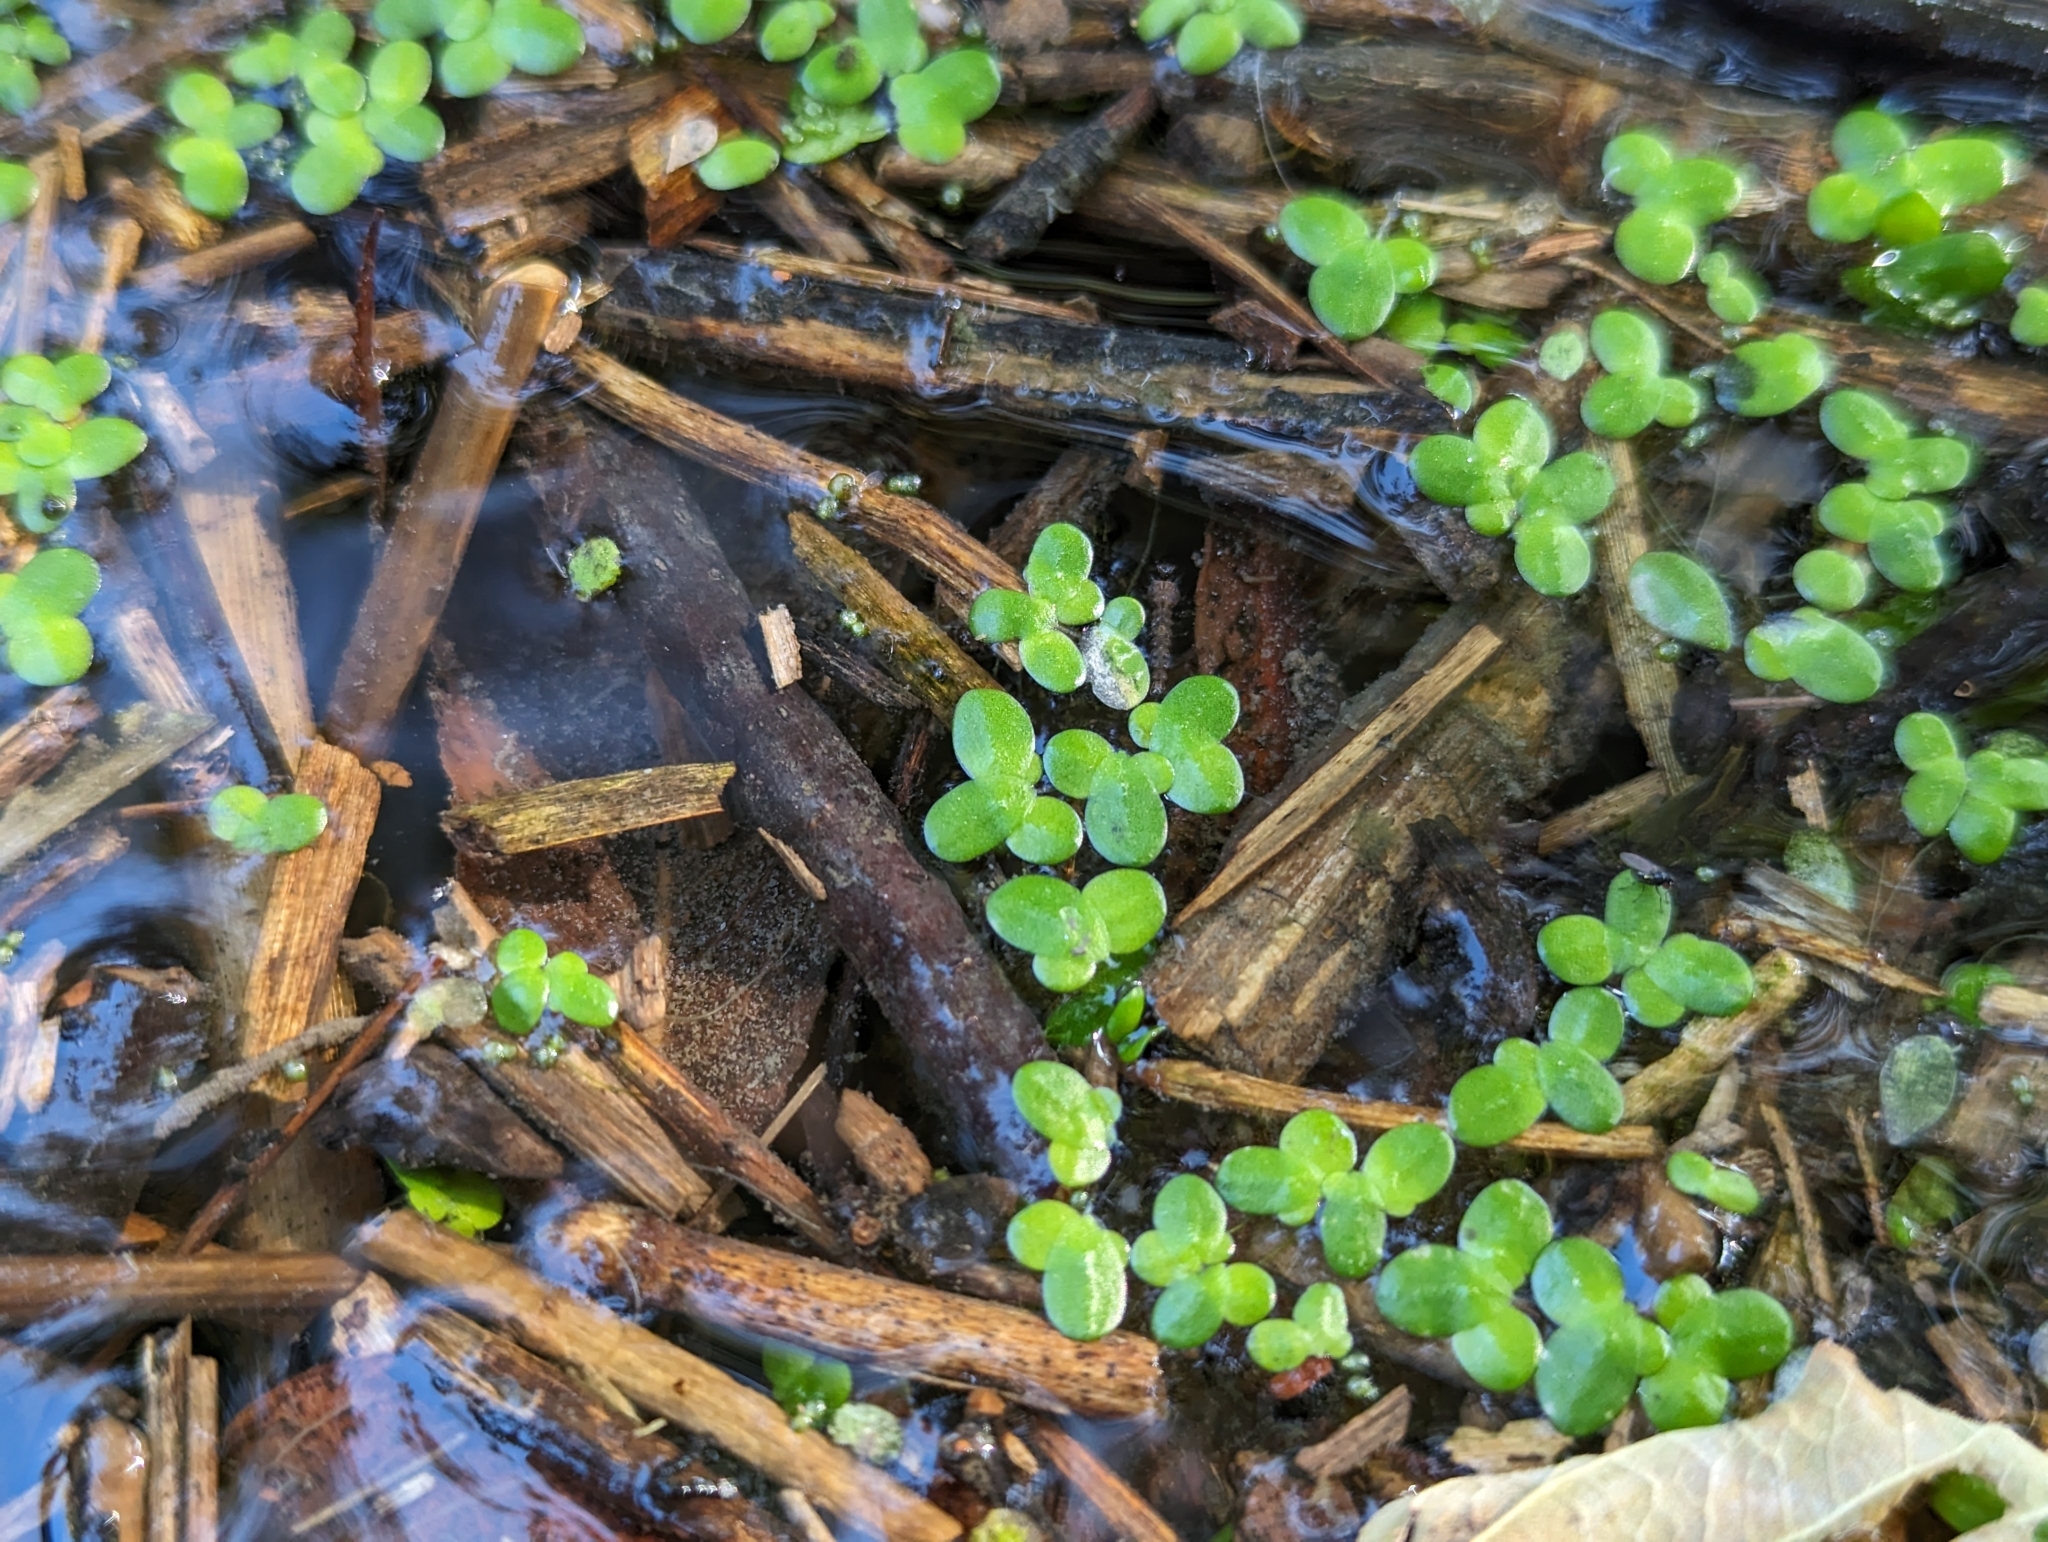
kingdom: Plantae
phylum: Tracheophyta
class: Liliopsida
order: Alismatales
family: Araceae
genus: Lemna
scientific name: Lemna minor
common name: Common duckweed
